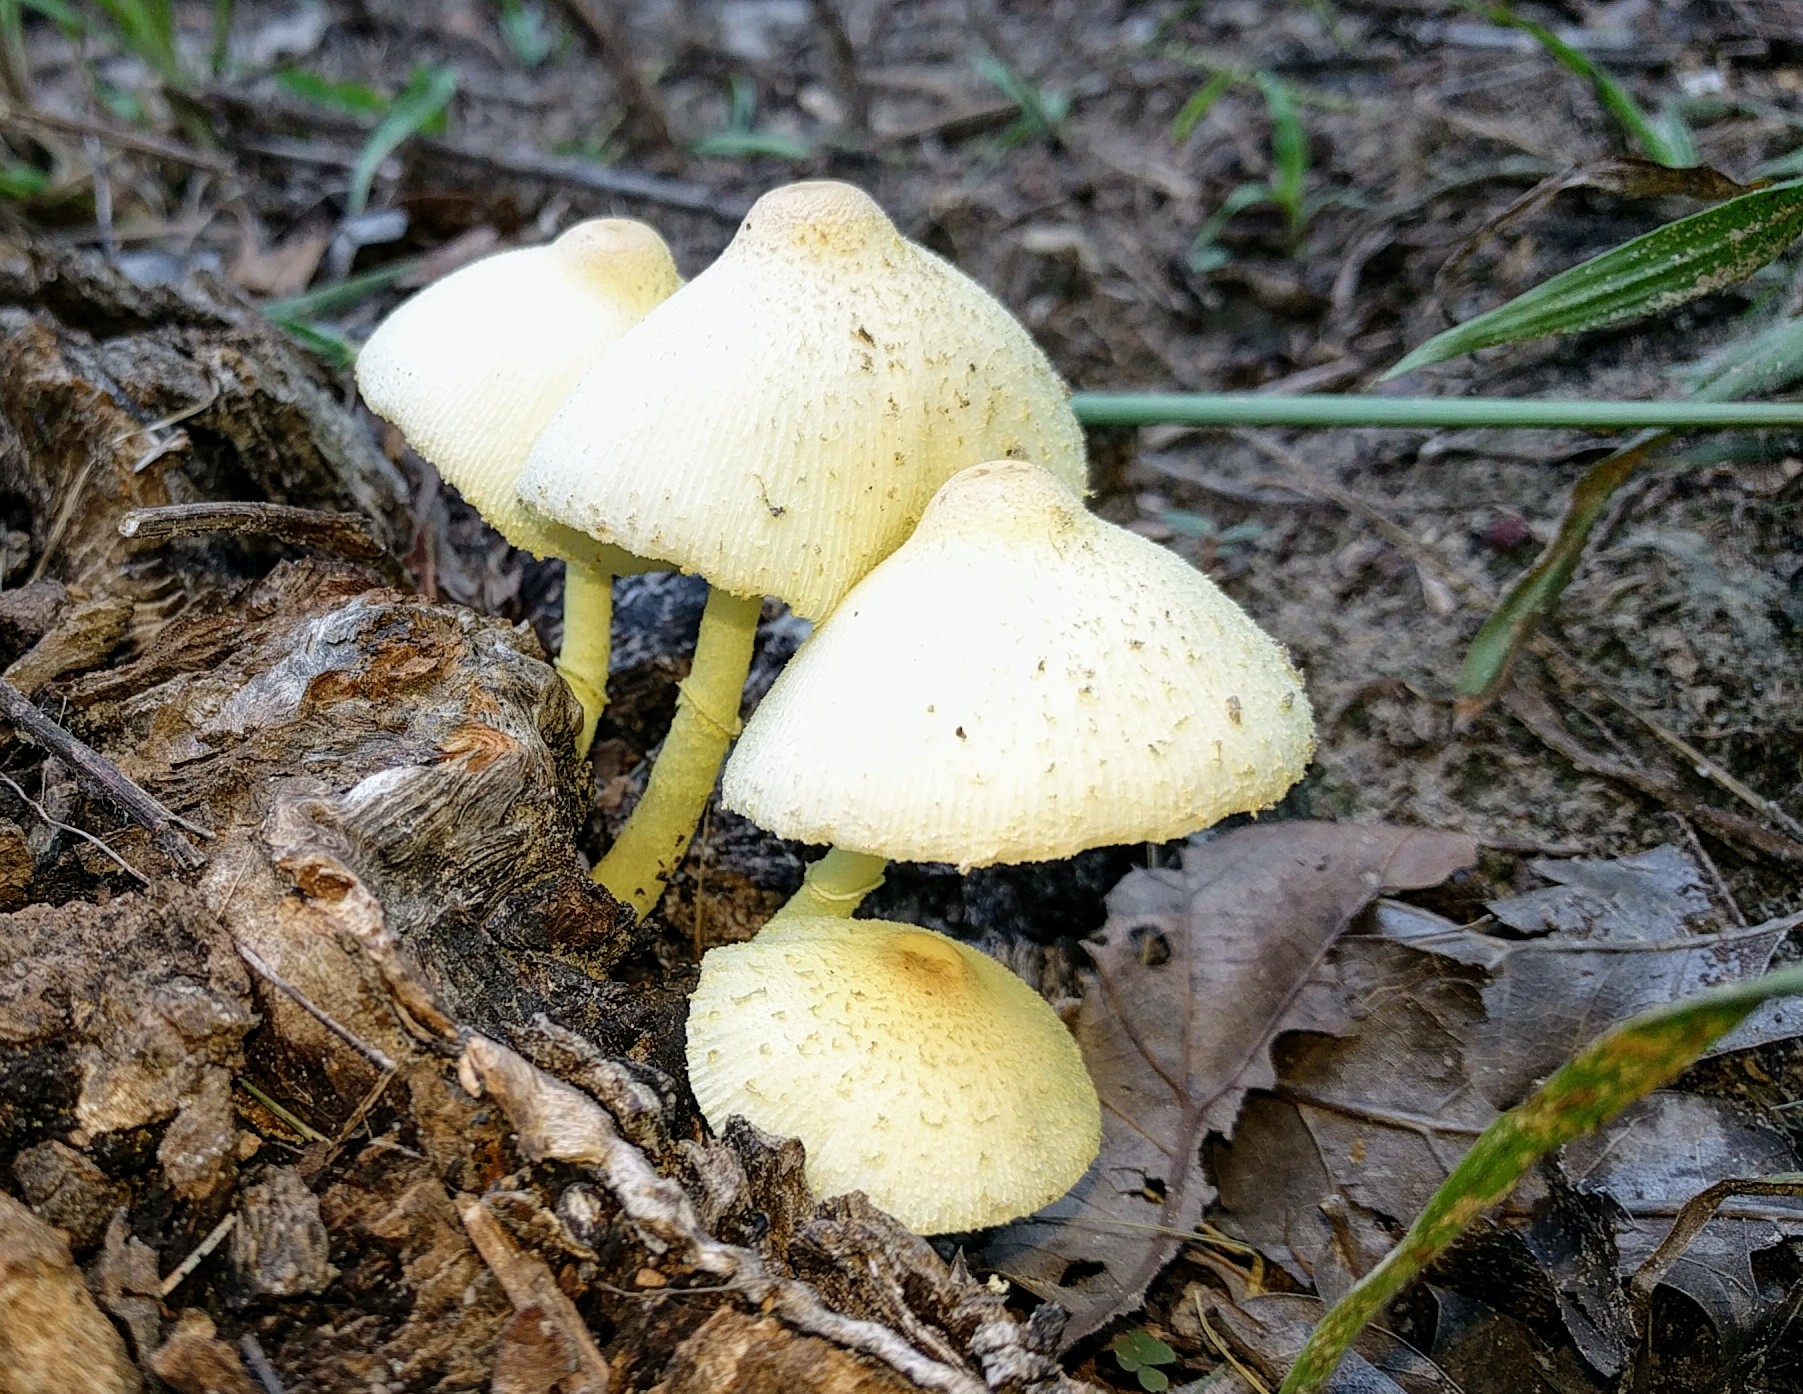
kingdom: Fungi
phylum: Basidiomycota
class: Agaricomycetes
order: Agaricales
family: Agaricaceae
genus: Leucocoprinus
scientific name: Leucocoprinus birnbaumii
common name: Plantpot dapperling
